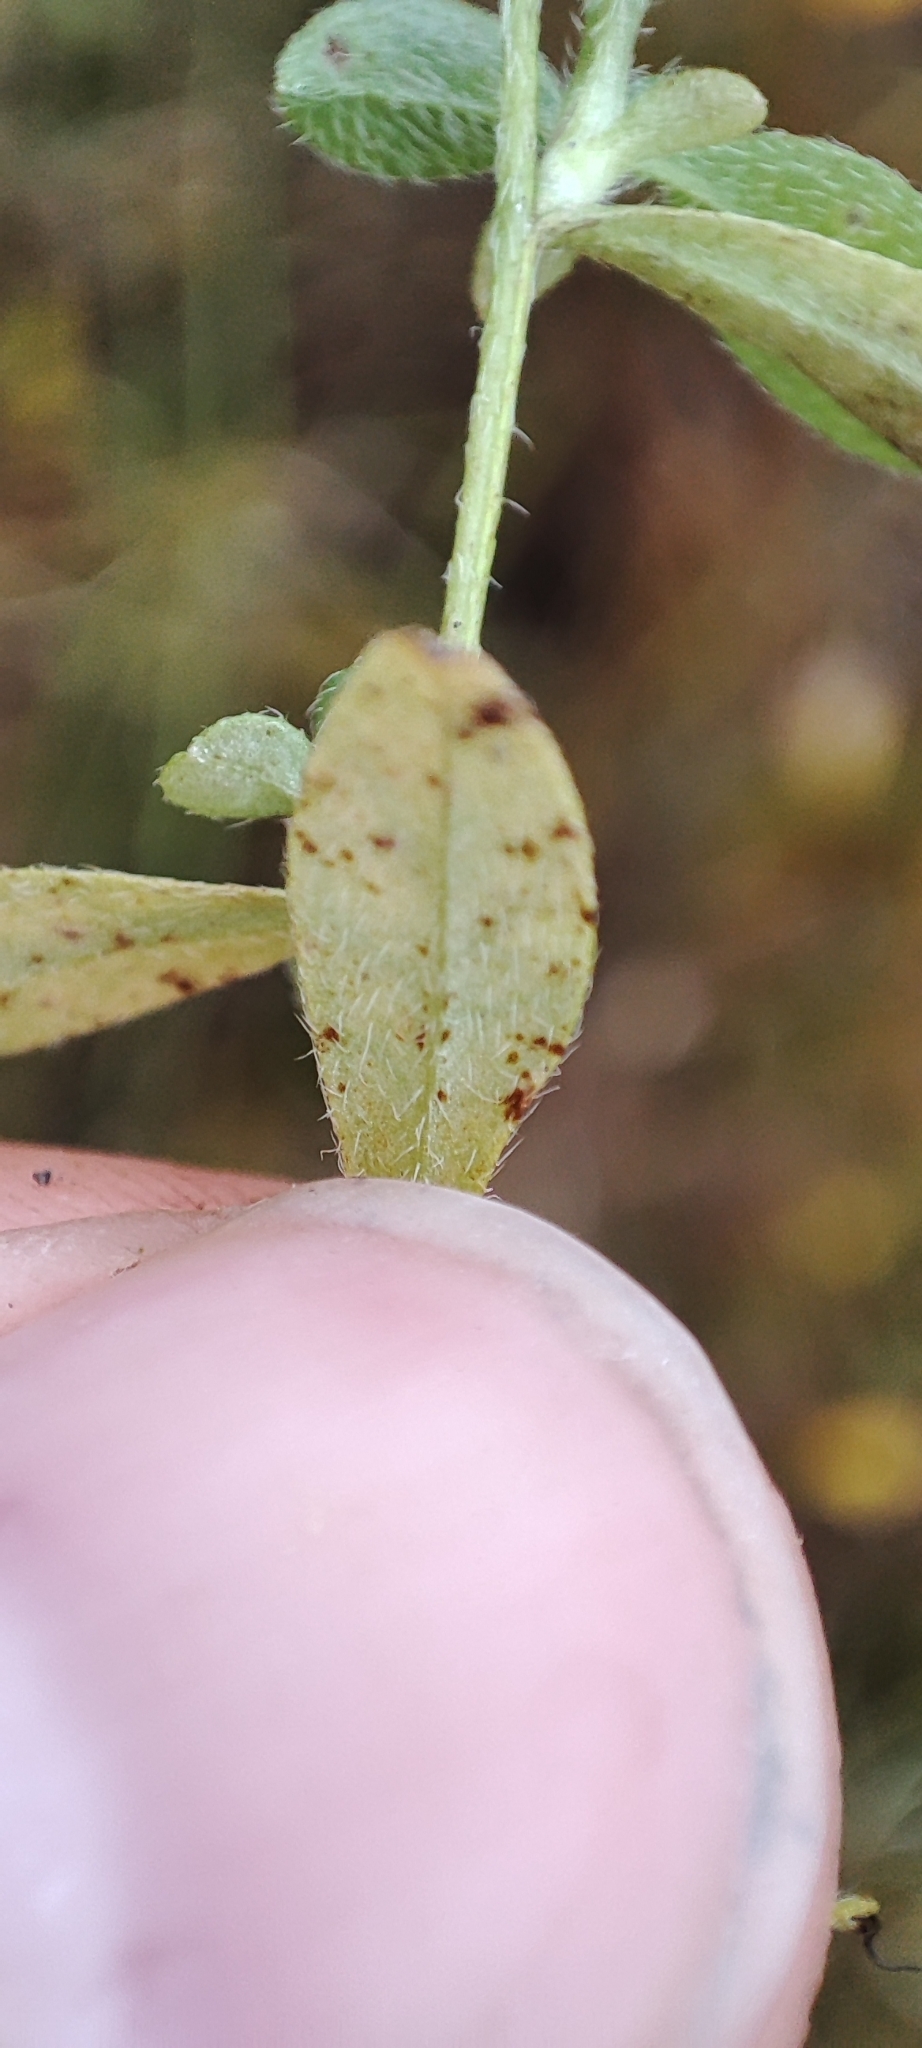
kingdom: Plantae
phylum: Tracheophyta
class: Magnoliopsida
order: Boraginales
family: Boraginaceae
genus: Myosotis
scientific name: Myosotis scorpioides
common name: Water forget-me-not
